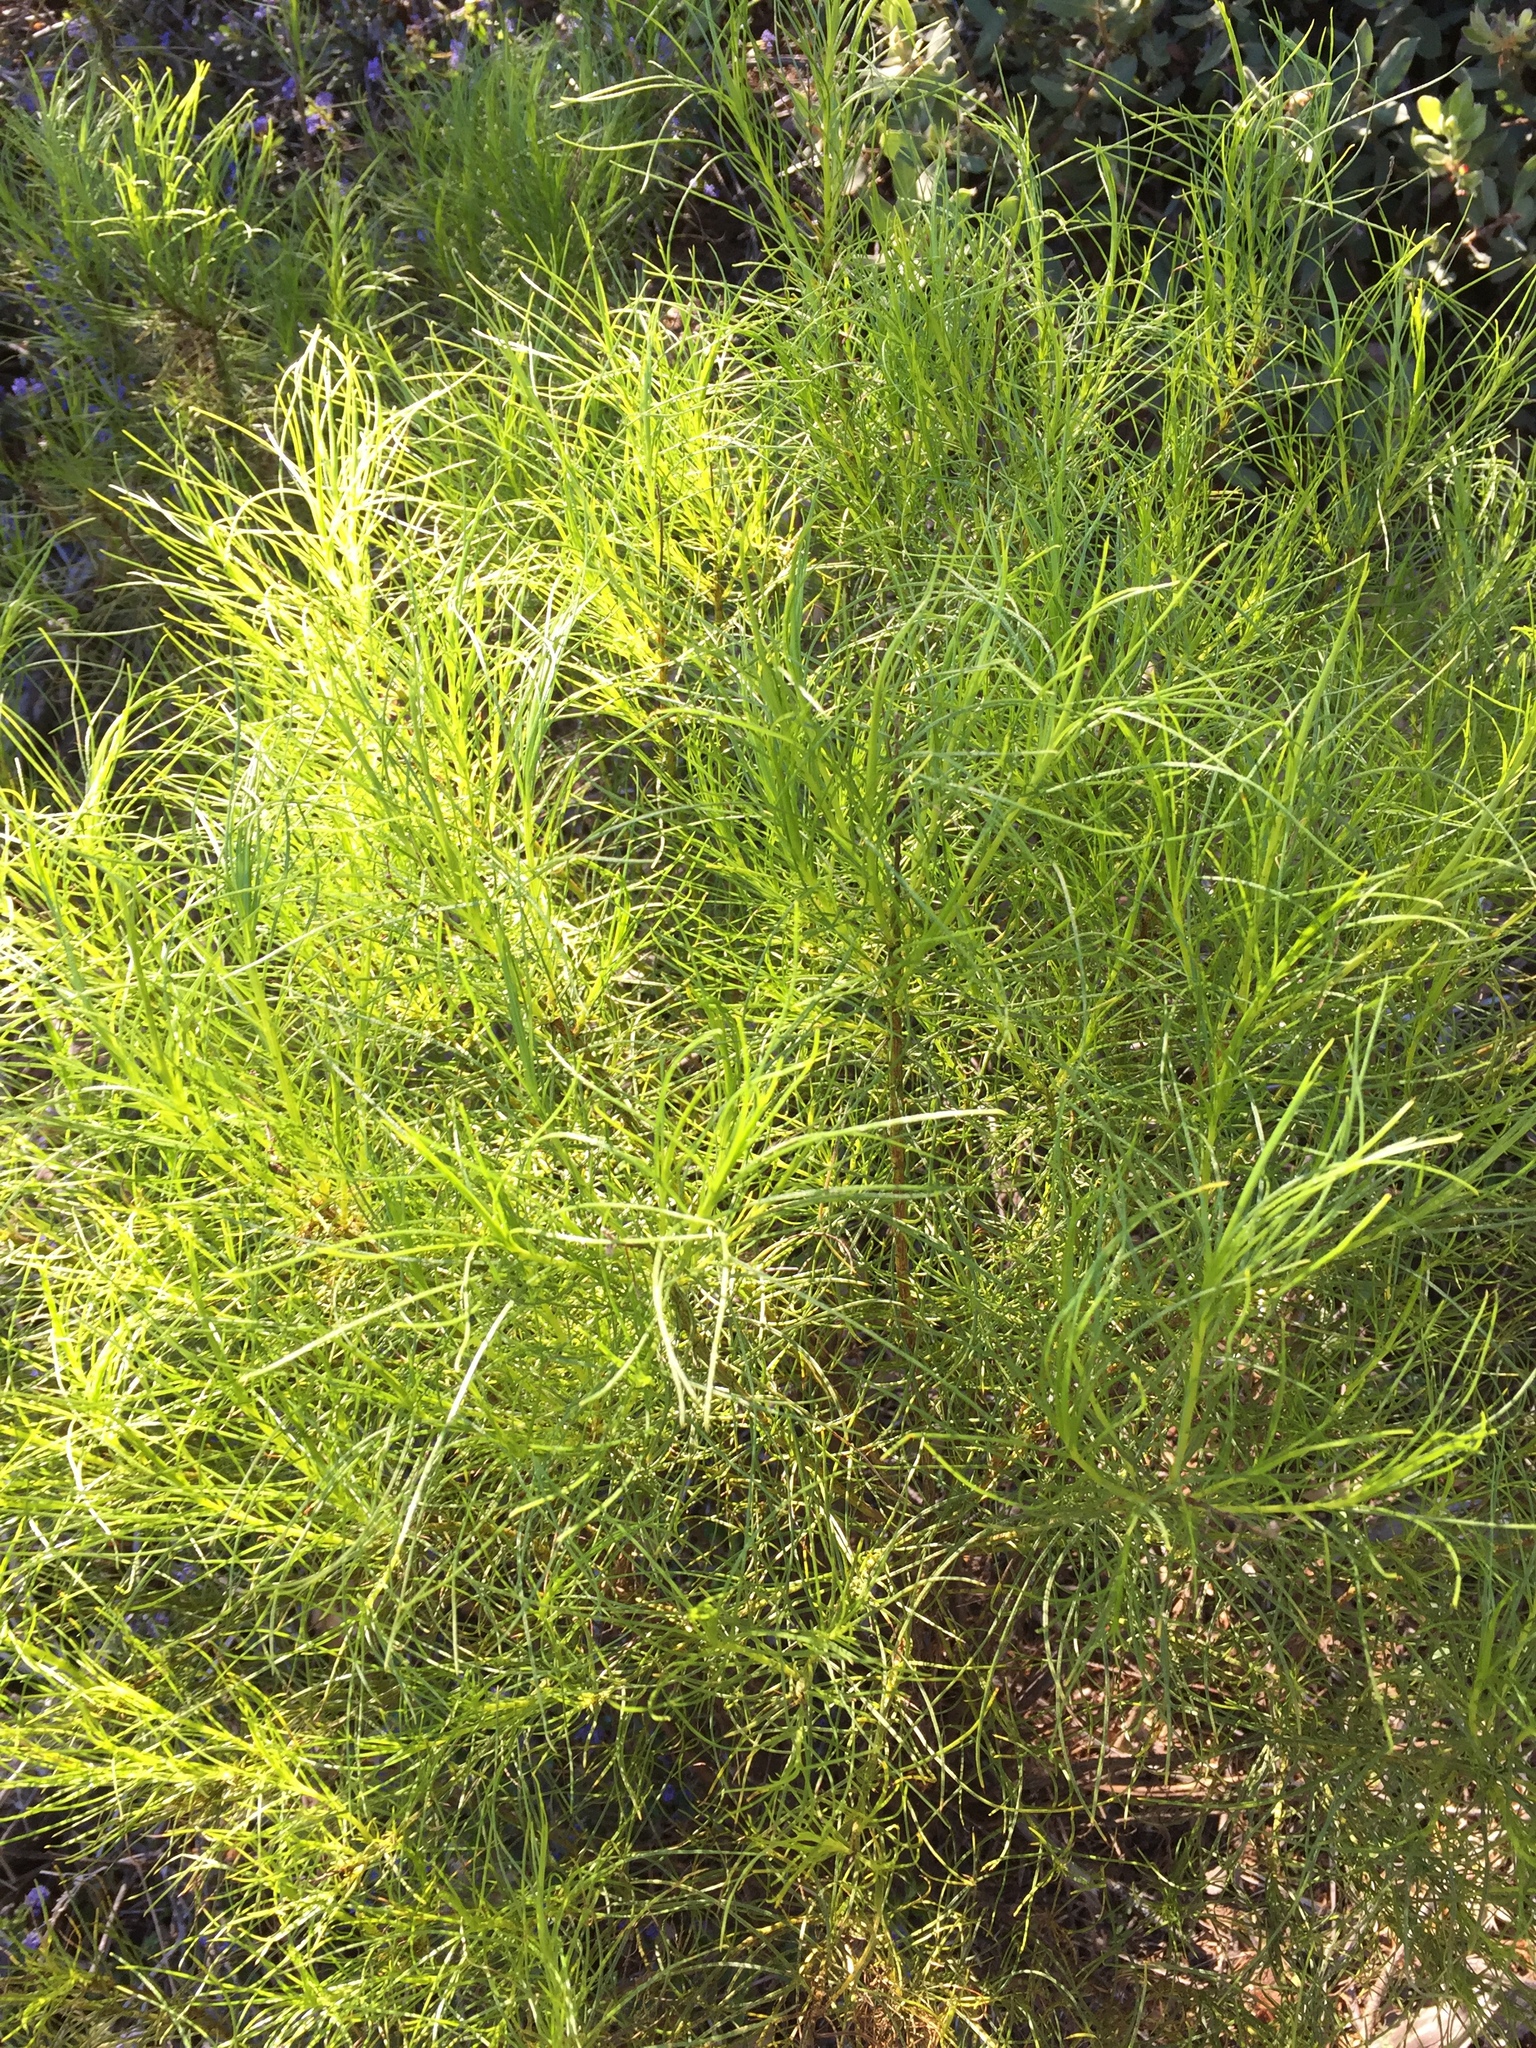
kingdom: Plantae
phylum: Tracheophyta
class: Magnoliopsida
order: Asterales
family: Asteraceae
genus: Ericameria
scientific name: Ericameria arborescens
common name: Goldenfleece
